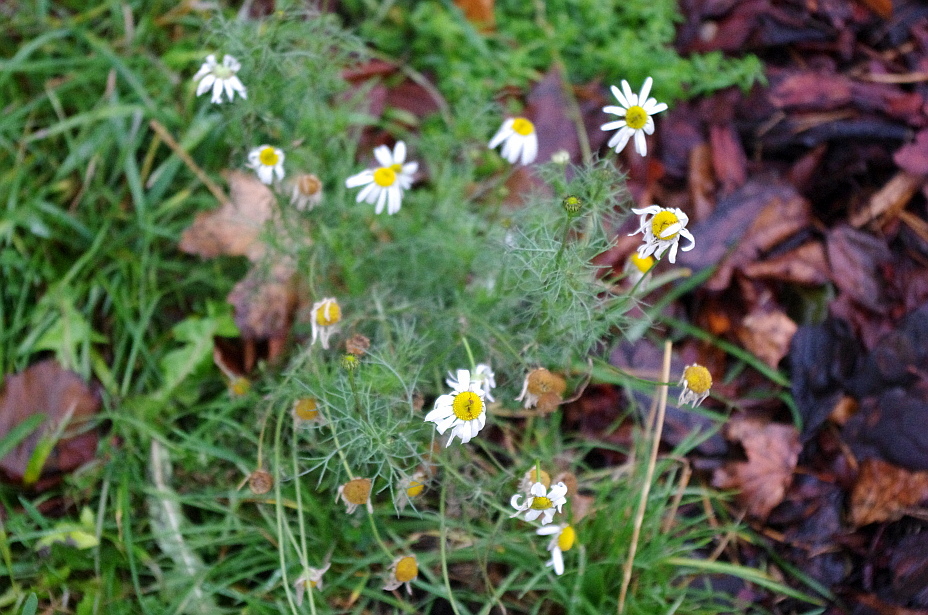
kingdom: Plantae
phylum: Tracheophyta
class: Magnoliopsida
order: Asterales
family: Asteraceae
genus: Tripleurospermum
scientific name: Tripleurospermum inodorum
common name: Scentless mayweed
